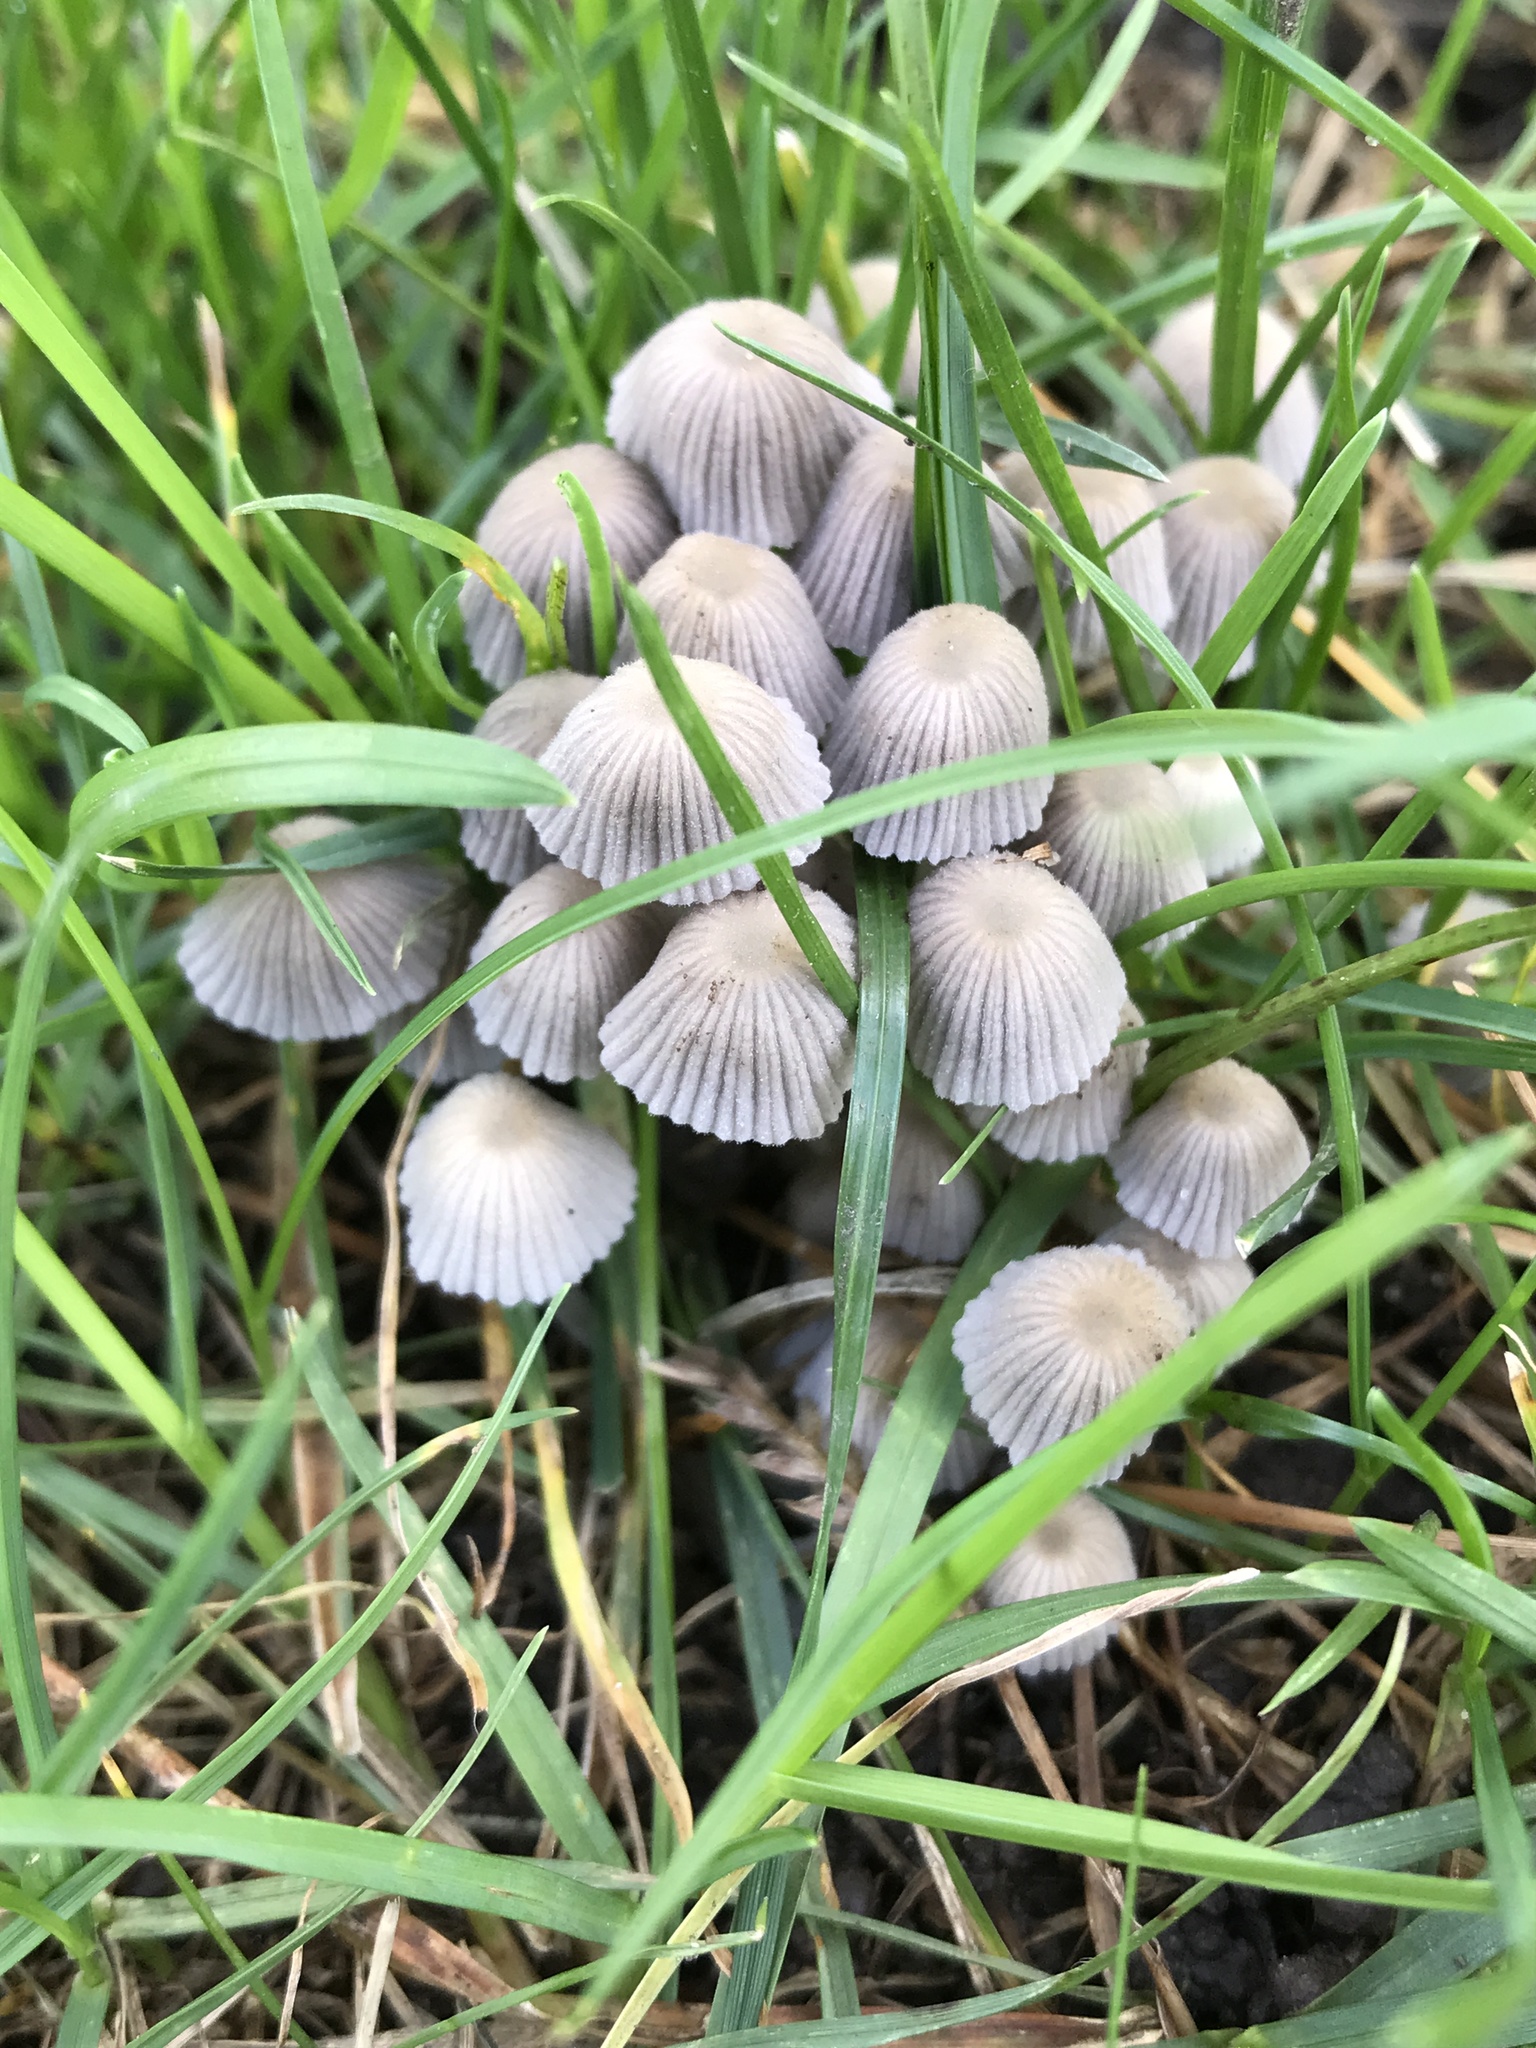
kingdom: Fungi
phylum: Basidiomycota
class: Agaricomycetes
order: Agaricales
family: Psathyrellaceae
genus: Coprinellus
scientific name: Coprinellus disseminatus
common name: Fairies' bonnets
